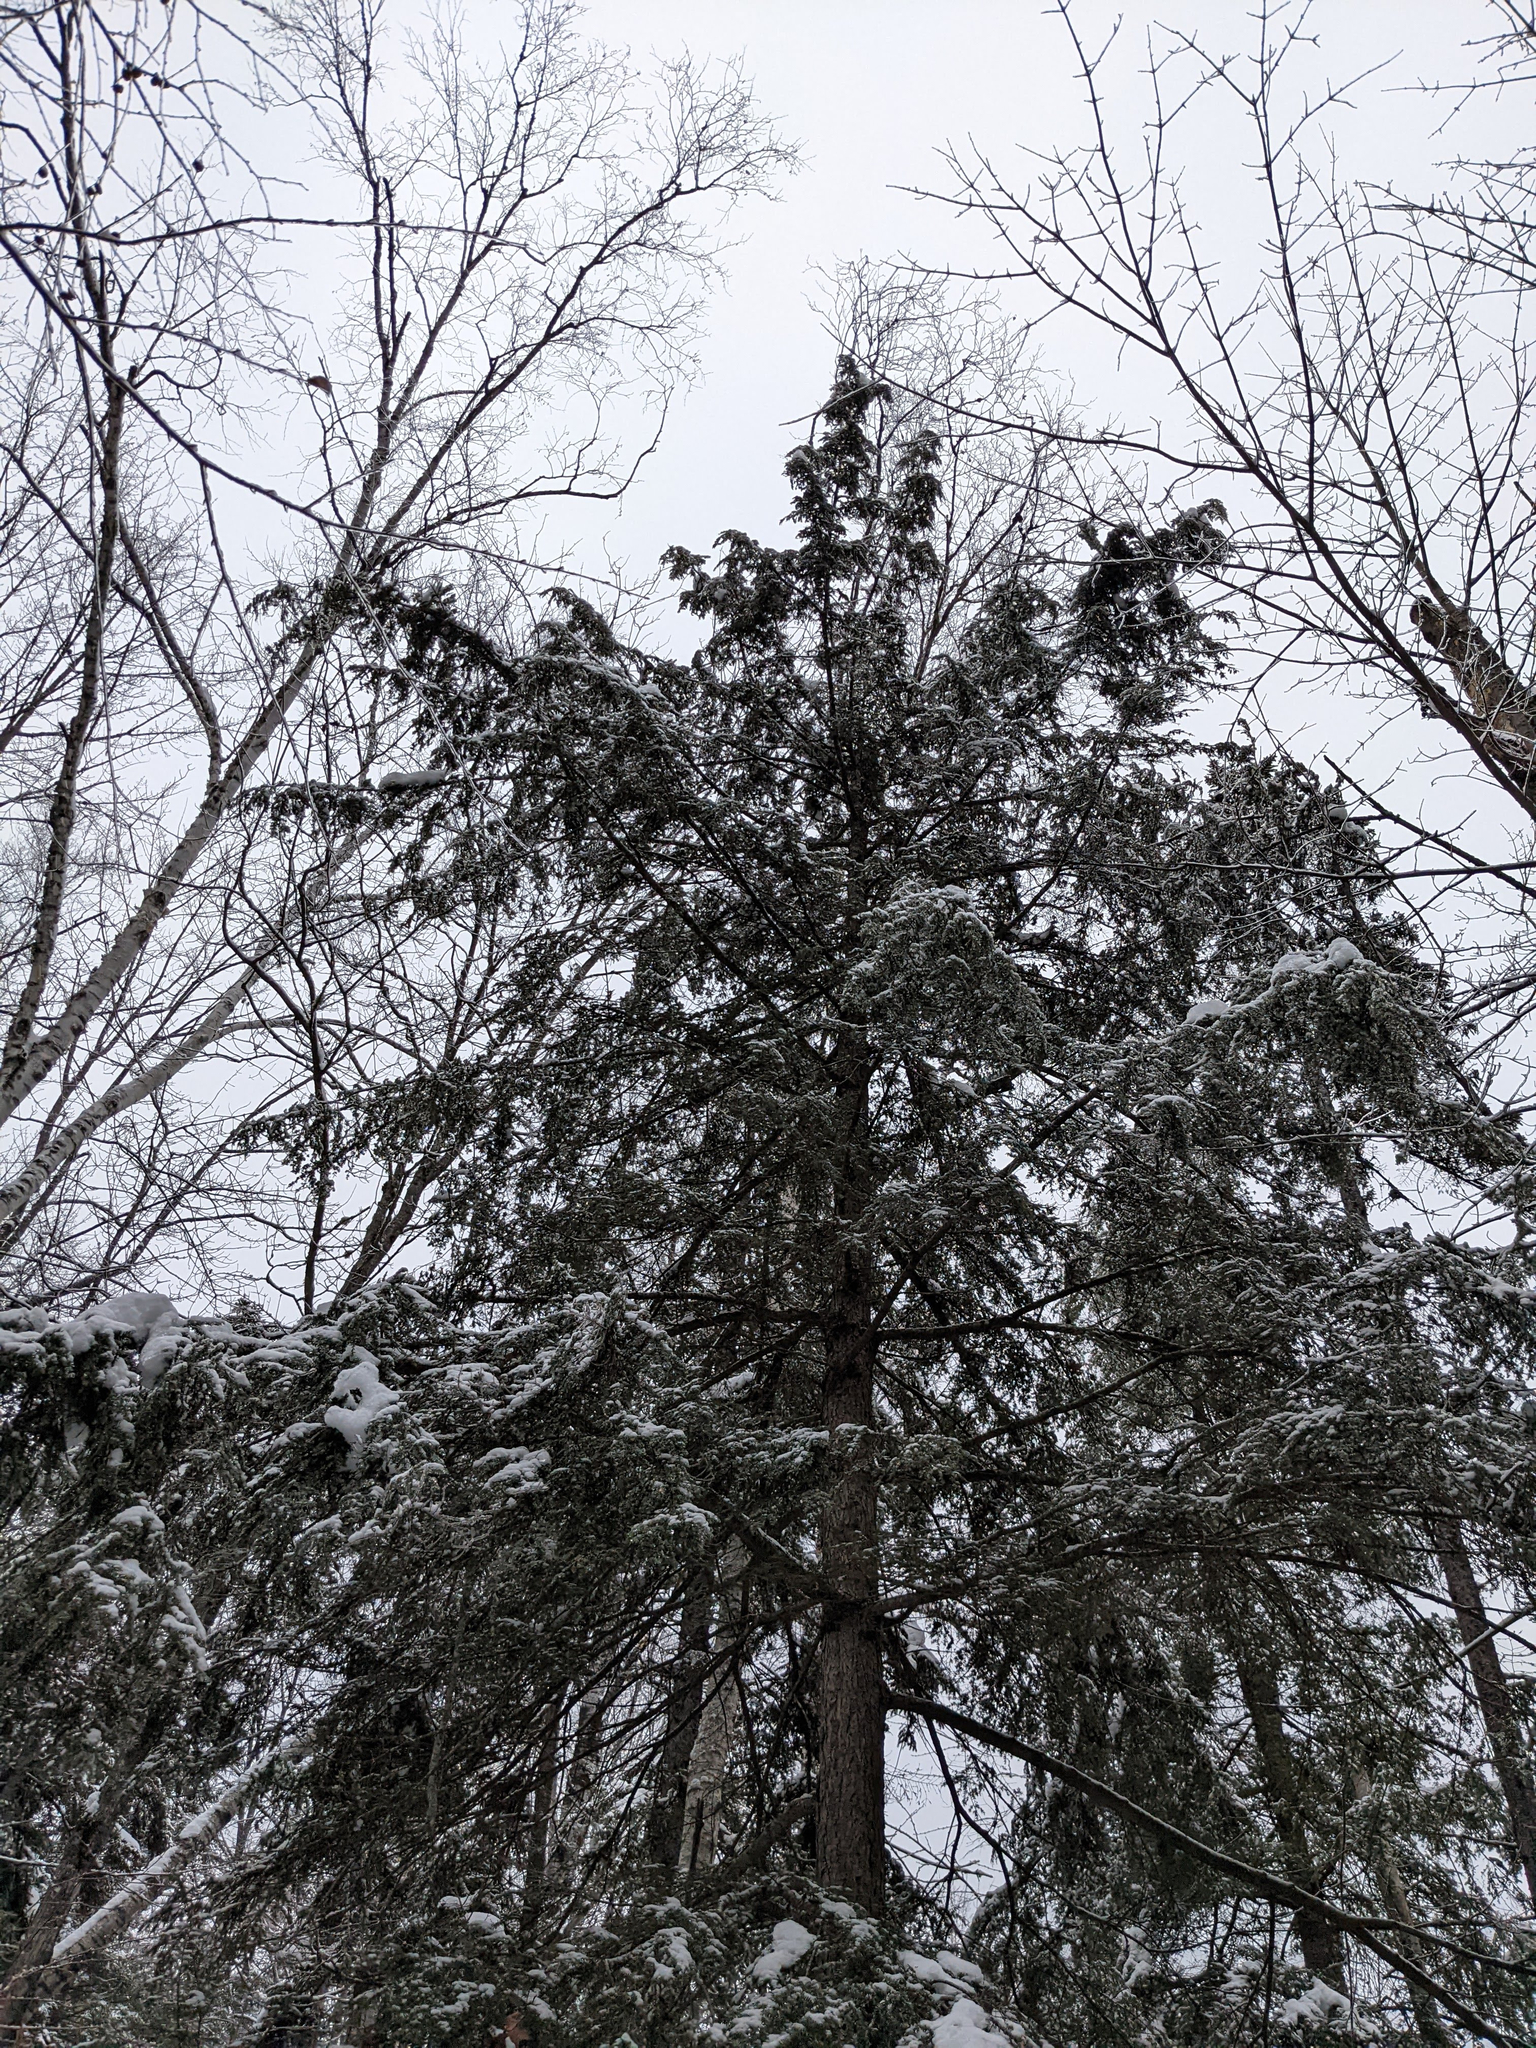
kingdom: Plantae
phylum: Tracheophyta
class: Pinopsida
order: Pinales
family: Pinaceae
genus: Tsuga
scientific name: Tsuga canadensis
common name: Eastern hemlock
